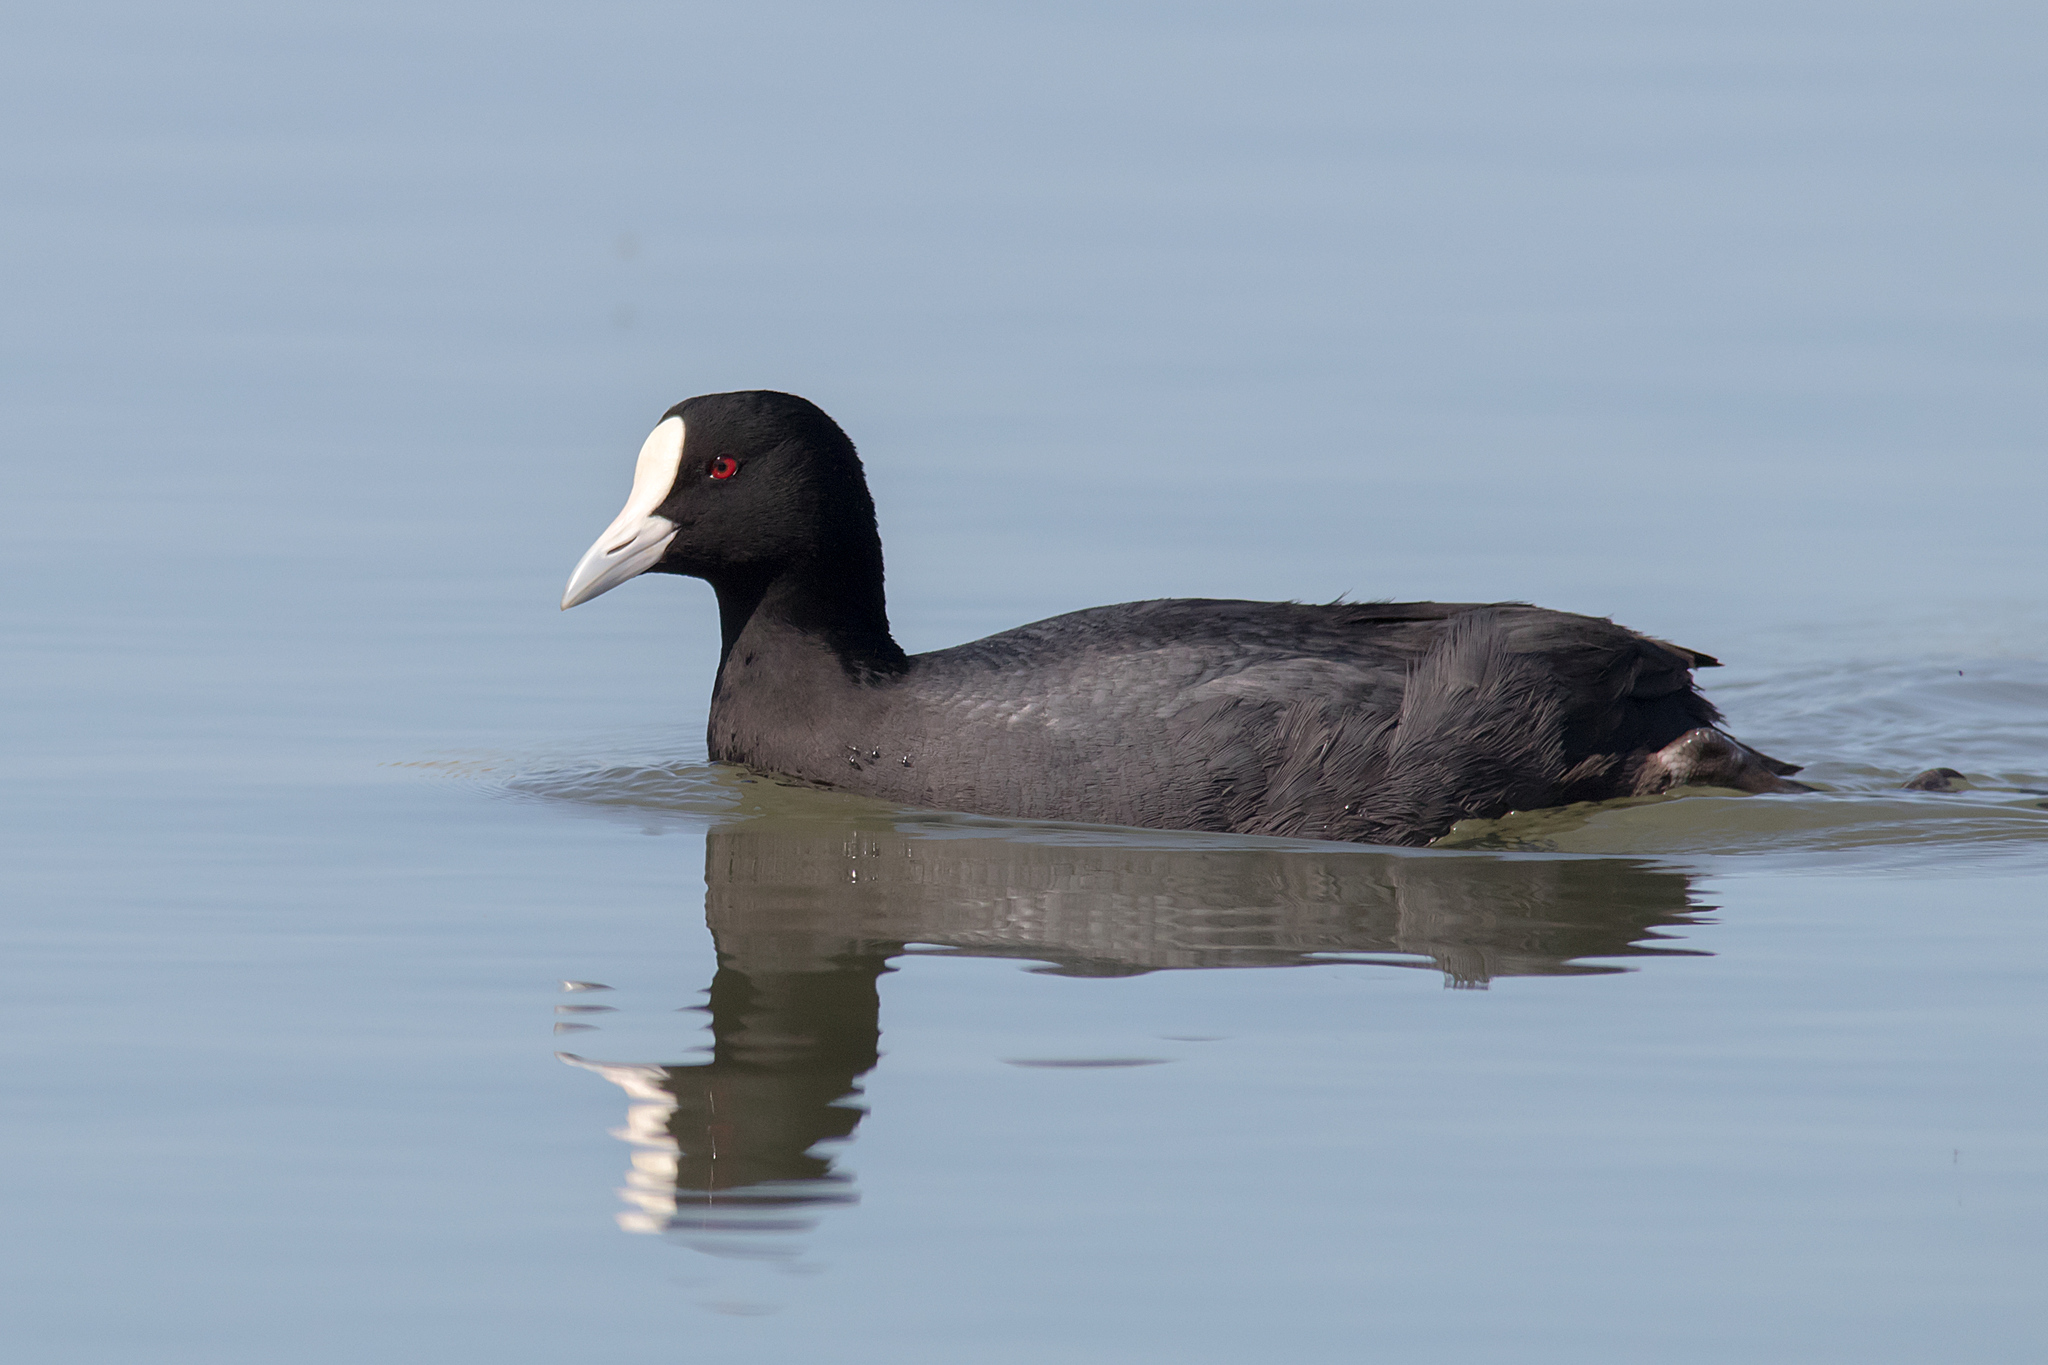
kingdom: Animalia
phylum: Chordata
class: Aves
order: Gruiformes
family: Rallidae
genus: Fulica
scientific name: Fulica atra
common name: Eurasian coot
